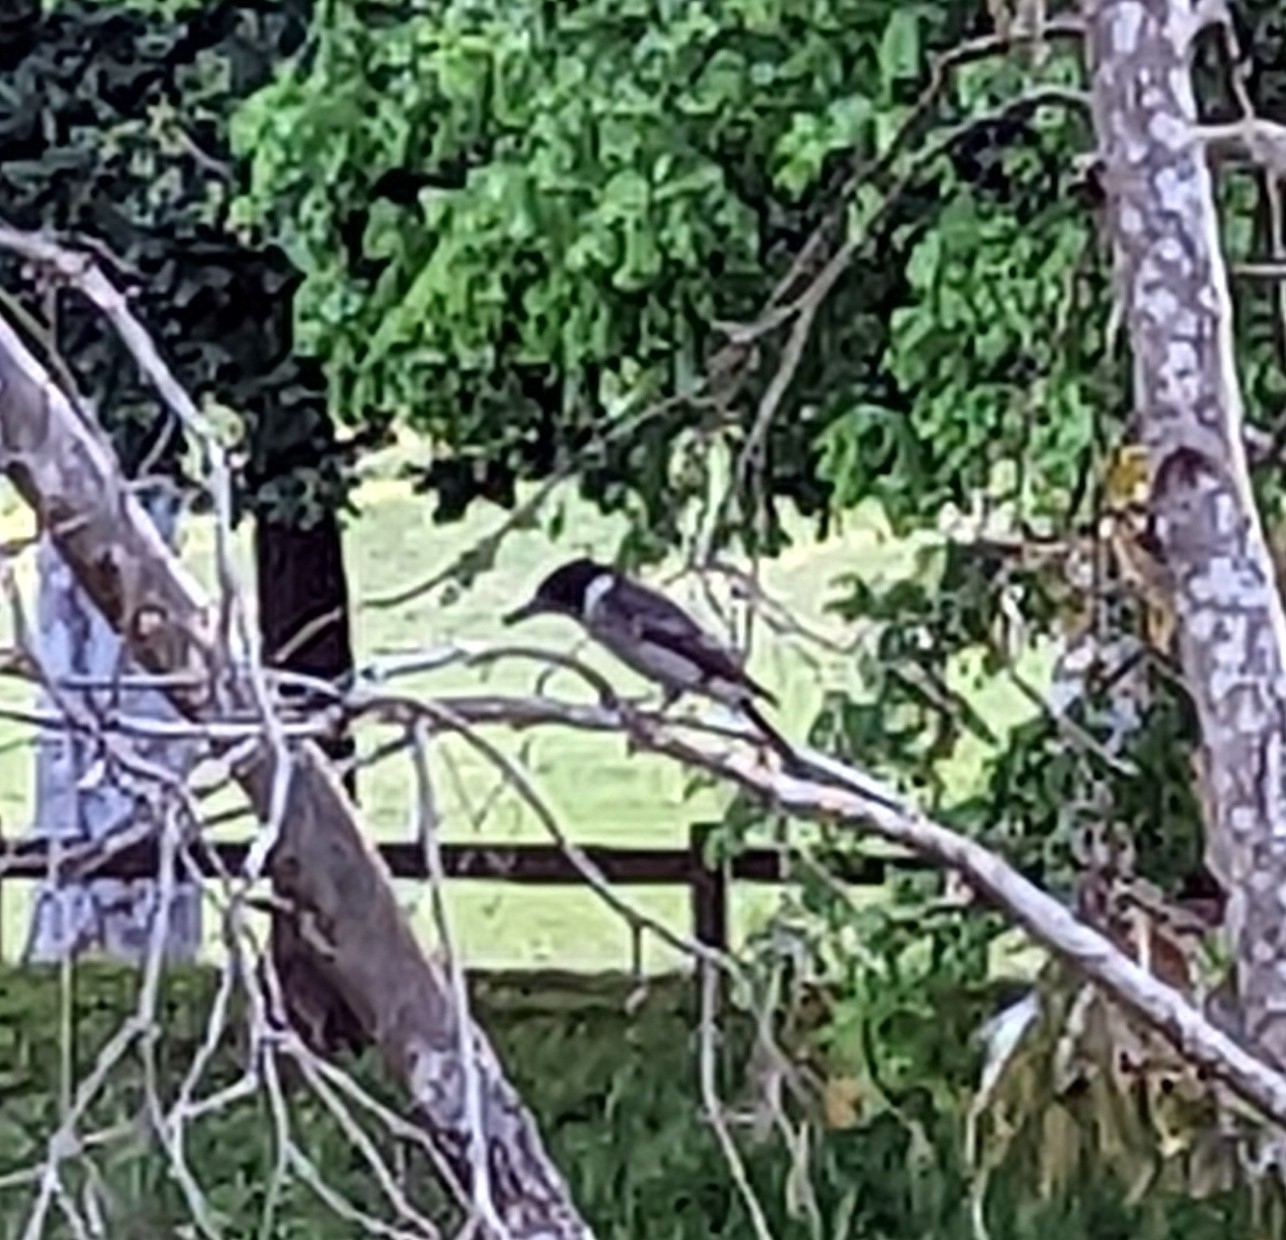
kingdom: Animalia
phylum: Chordata
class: Aves
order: Passeriformes
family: Cracticidae
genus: Cracticus
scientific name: Cracticus torquatus
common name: Grey butcherbird
